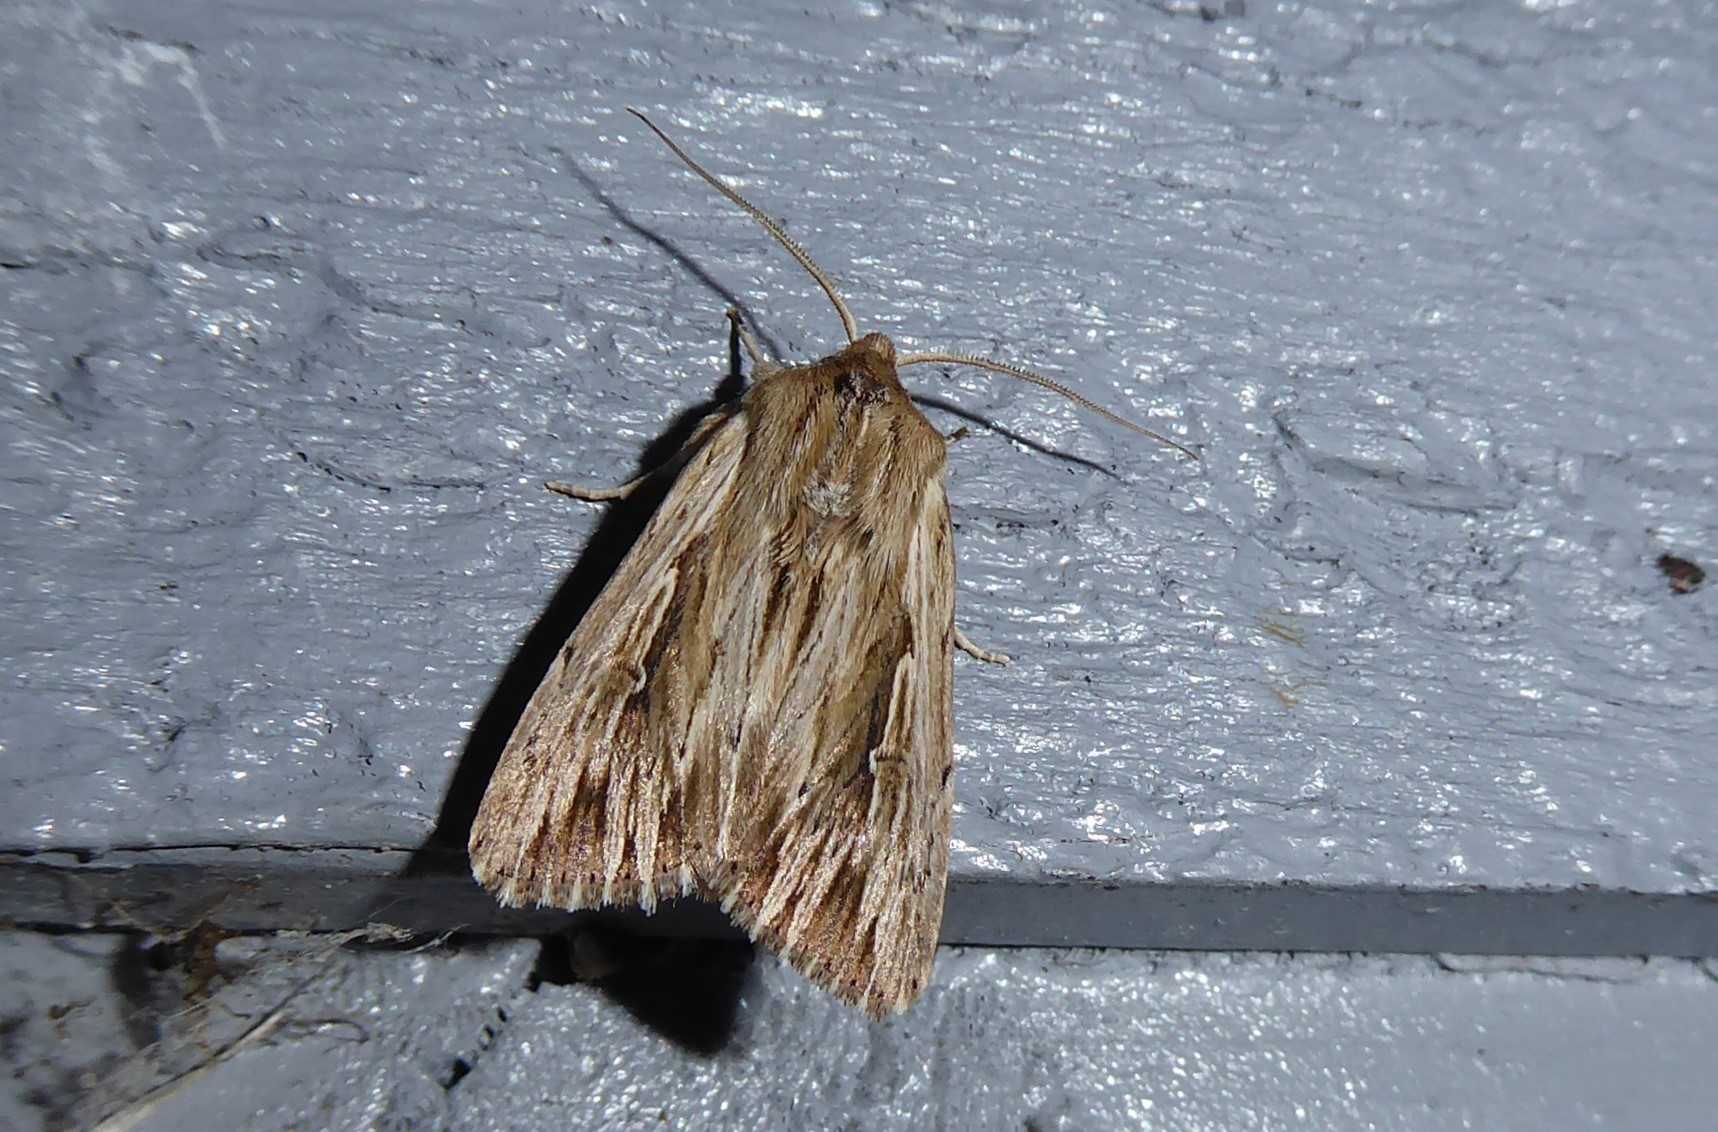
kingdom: Animalia
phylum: Arthropoda
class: Insecta
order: Lepidoptera
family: Noctuidae
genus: Persectania
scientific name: Persectania aversa
